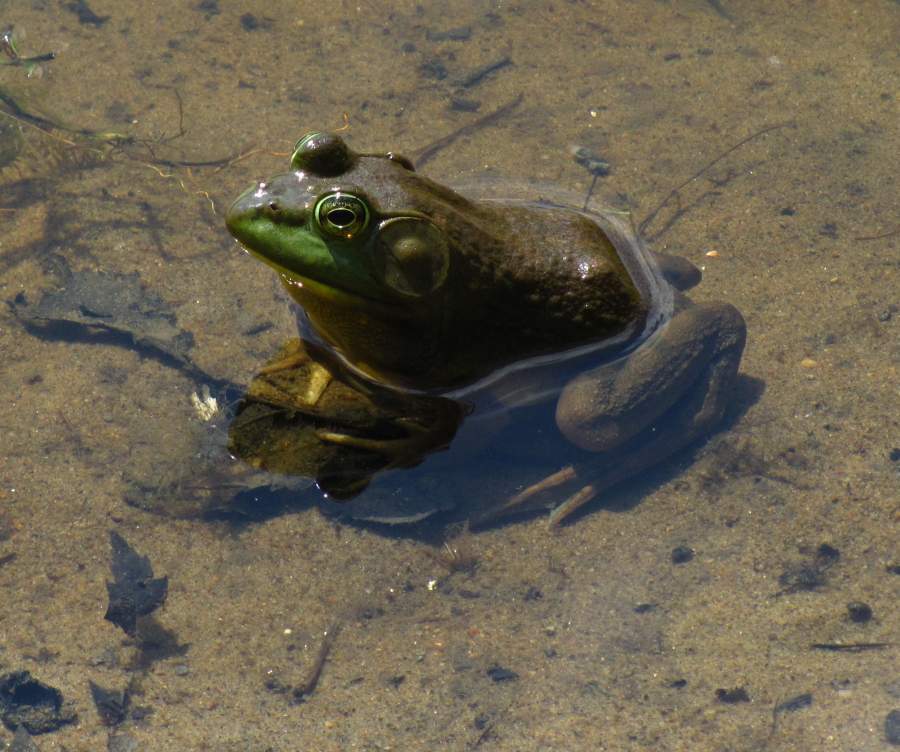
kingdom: Animalia
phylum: Chordata
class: Amphibia
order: Anura
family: Ranidae
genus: Lithobates
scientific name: Lithobates catesbeianus
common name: American bullfrog
